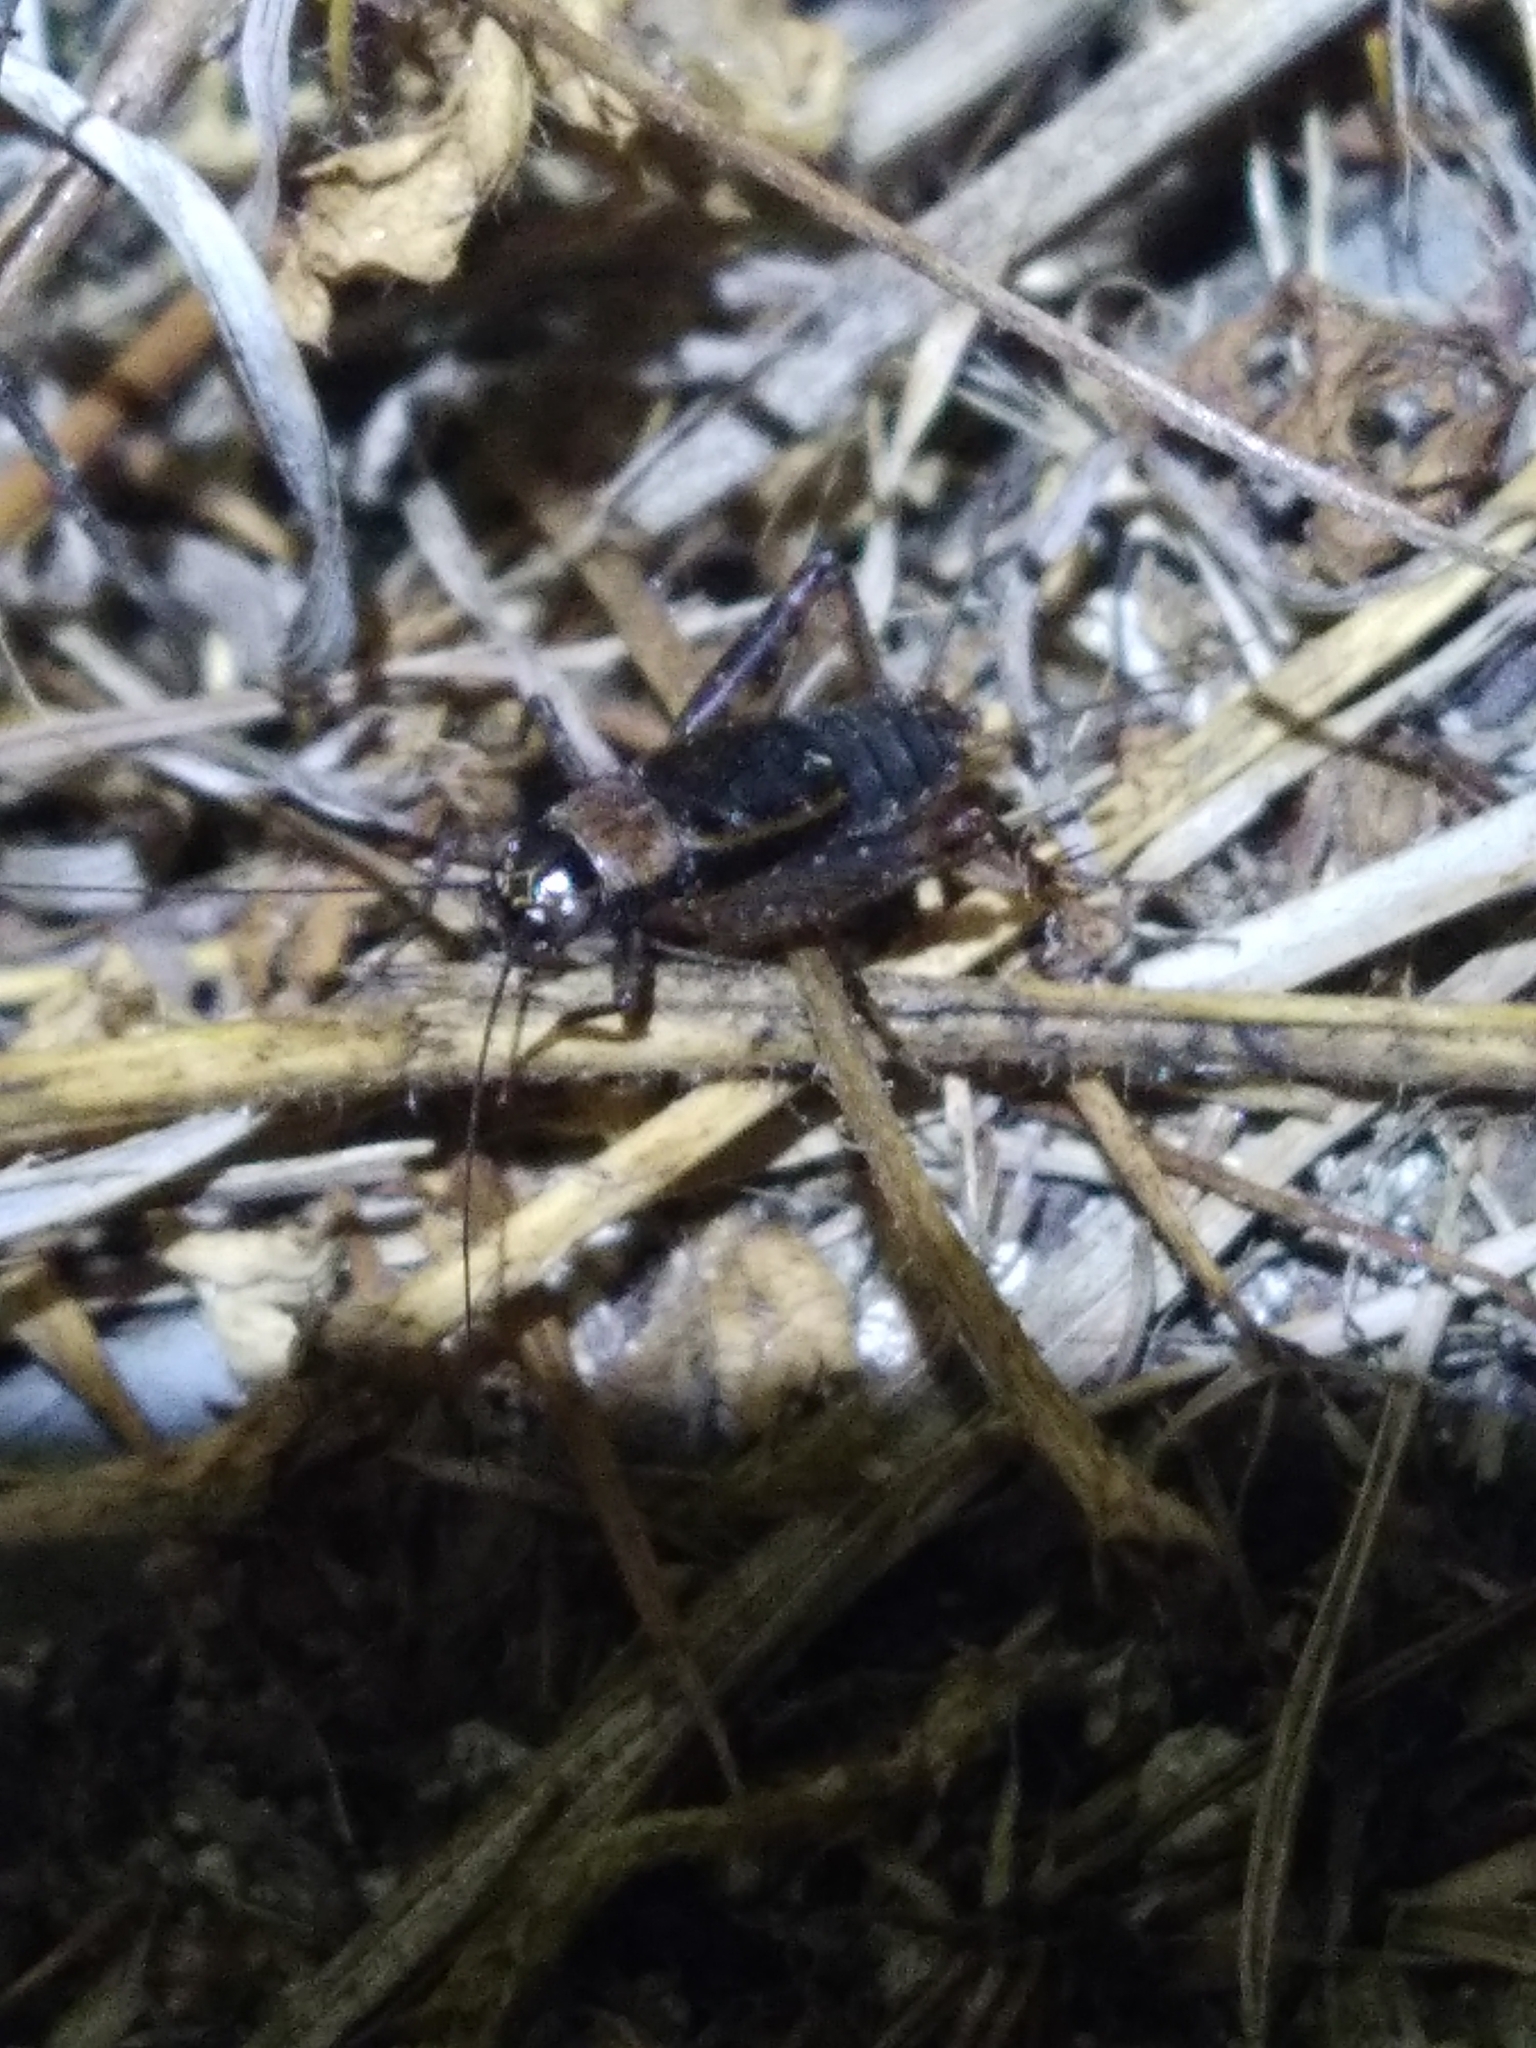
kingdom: Animalia
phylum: Arthropoda
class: Insecta
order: Orthoptera
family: Trigonidiidae
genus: Nemobius
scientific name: Nemobius sylvestris
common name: Wood-cricket
